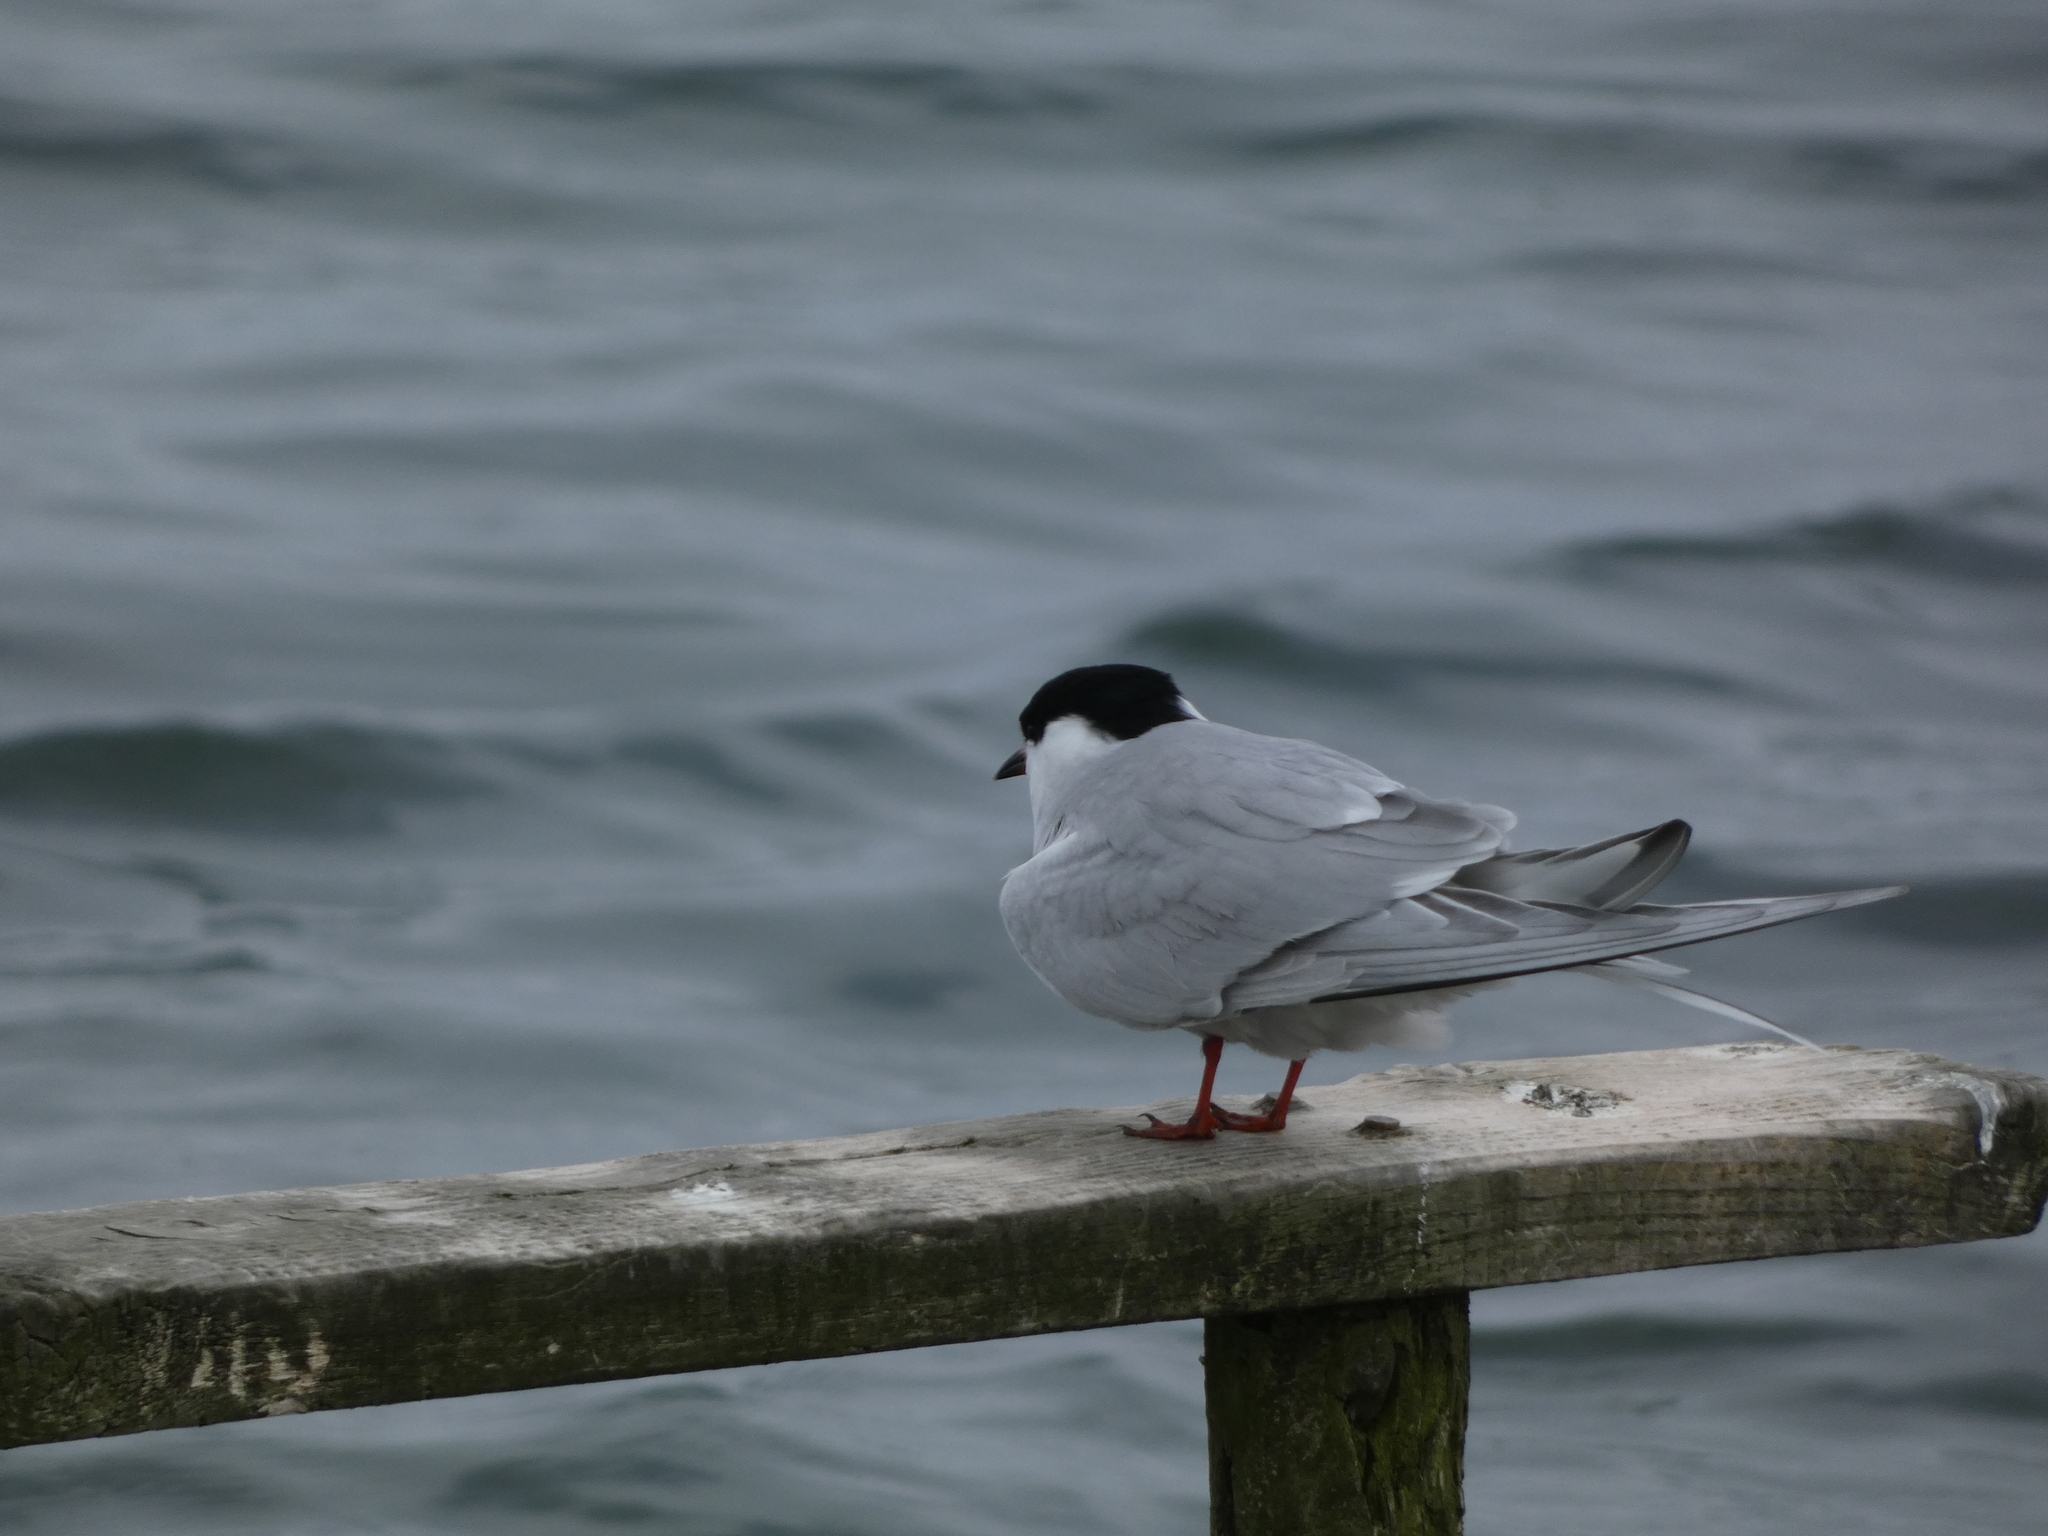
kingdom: Animalia
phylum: Chordata
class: Aves
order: Charadriiformes
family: Laridae
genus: Sterna
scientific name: Sterna hirundo
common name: Common tern
